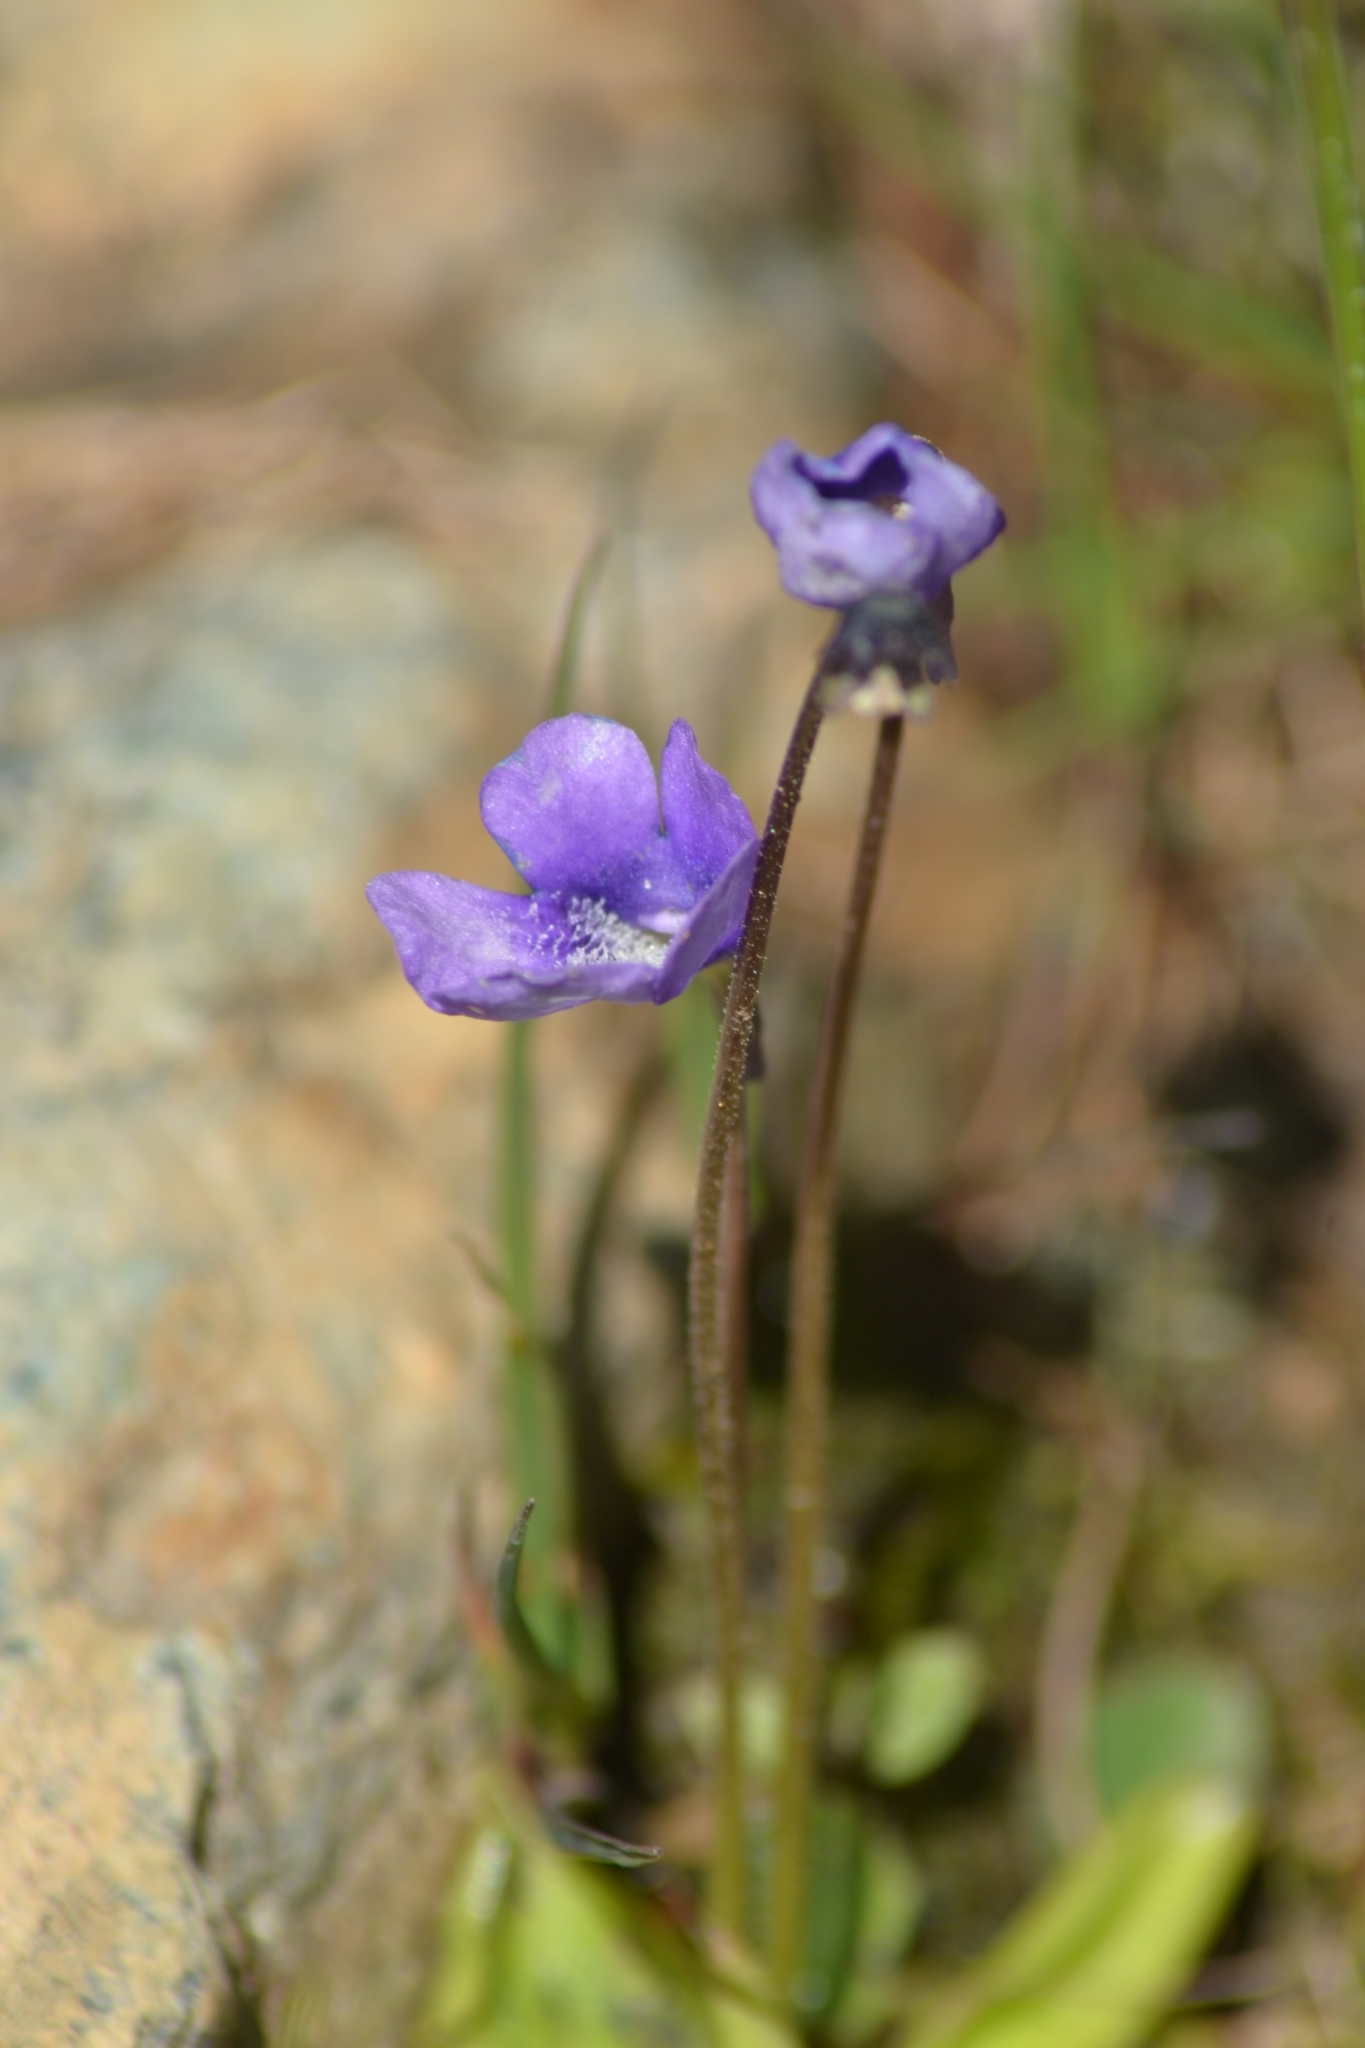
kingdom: Plantae
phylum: Tracheophyta
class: Magnoliopsida
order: Lamiales
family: Lentibulariaceae
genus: Pinguicula
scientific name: Pinguicula vulgaris
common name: Common butterwort
